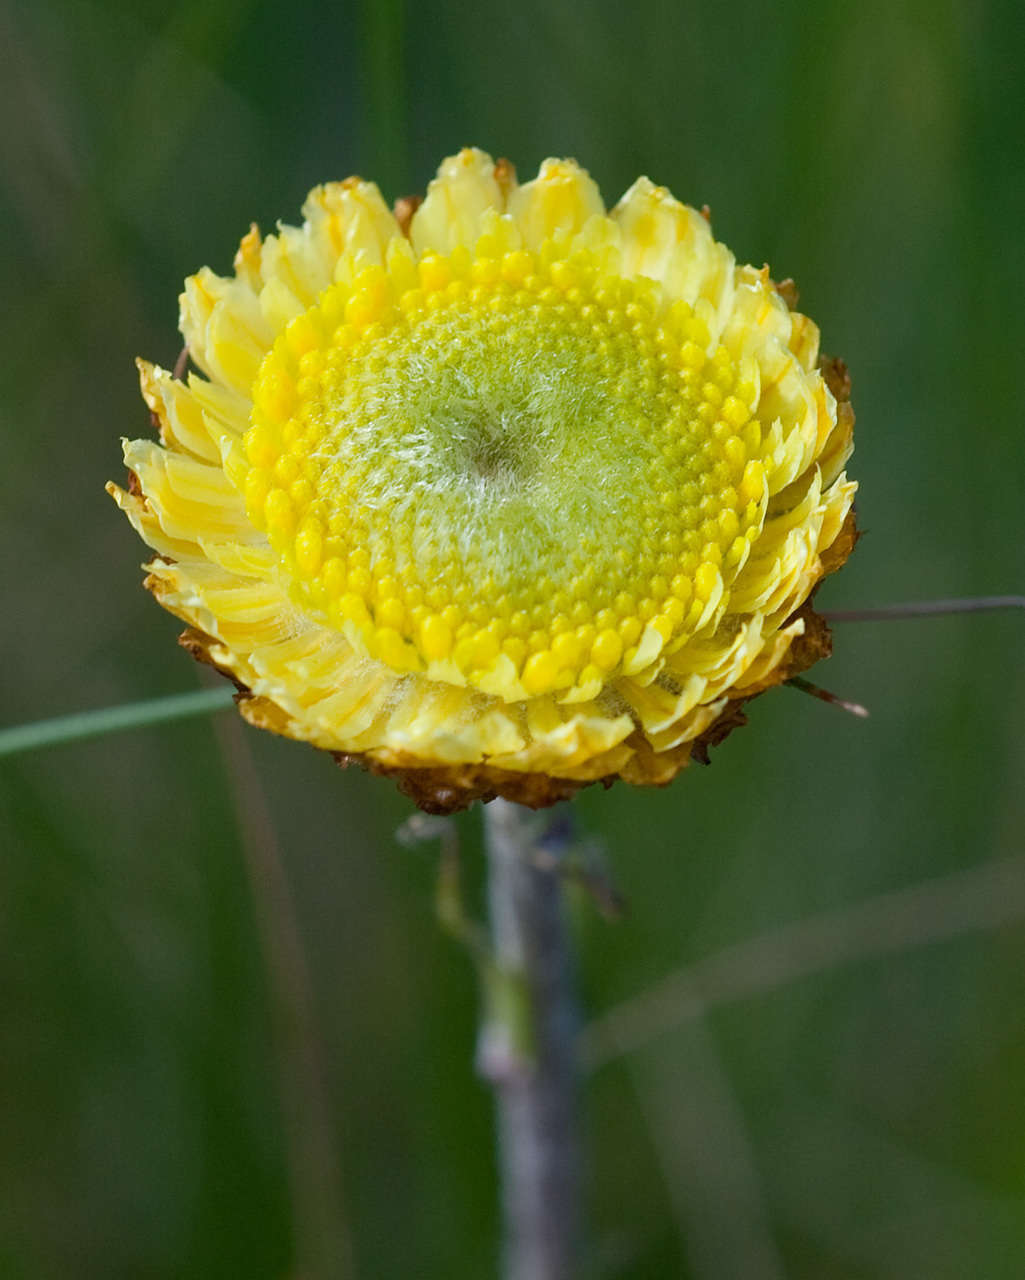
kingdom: Plantae
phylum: Tracheophyta
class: Magnoliopsida
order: Asterales
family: Asteraceae
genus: Coronidium
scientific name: Coronidium scorpioides
